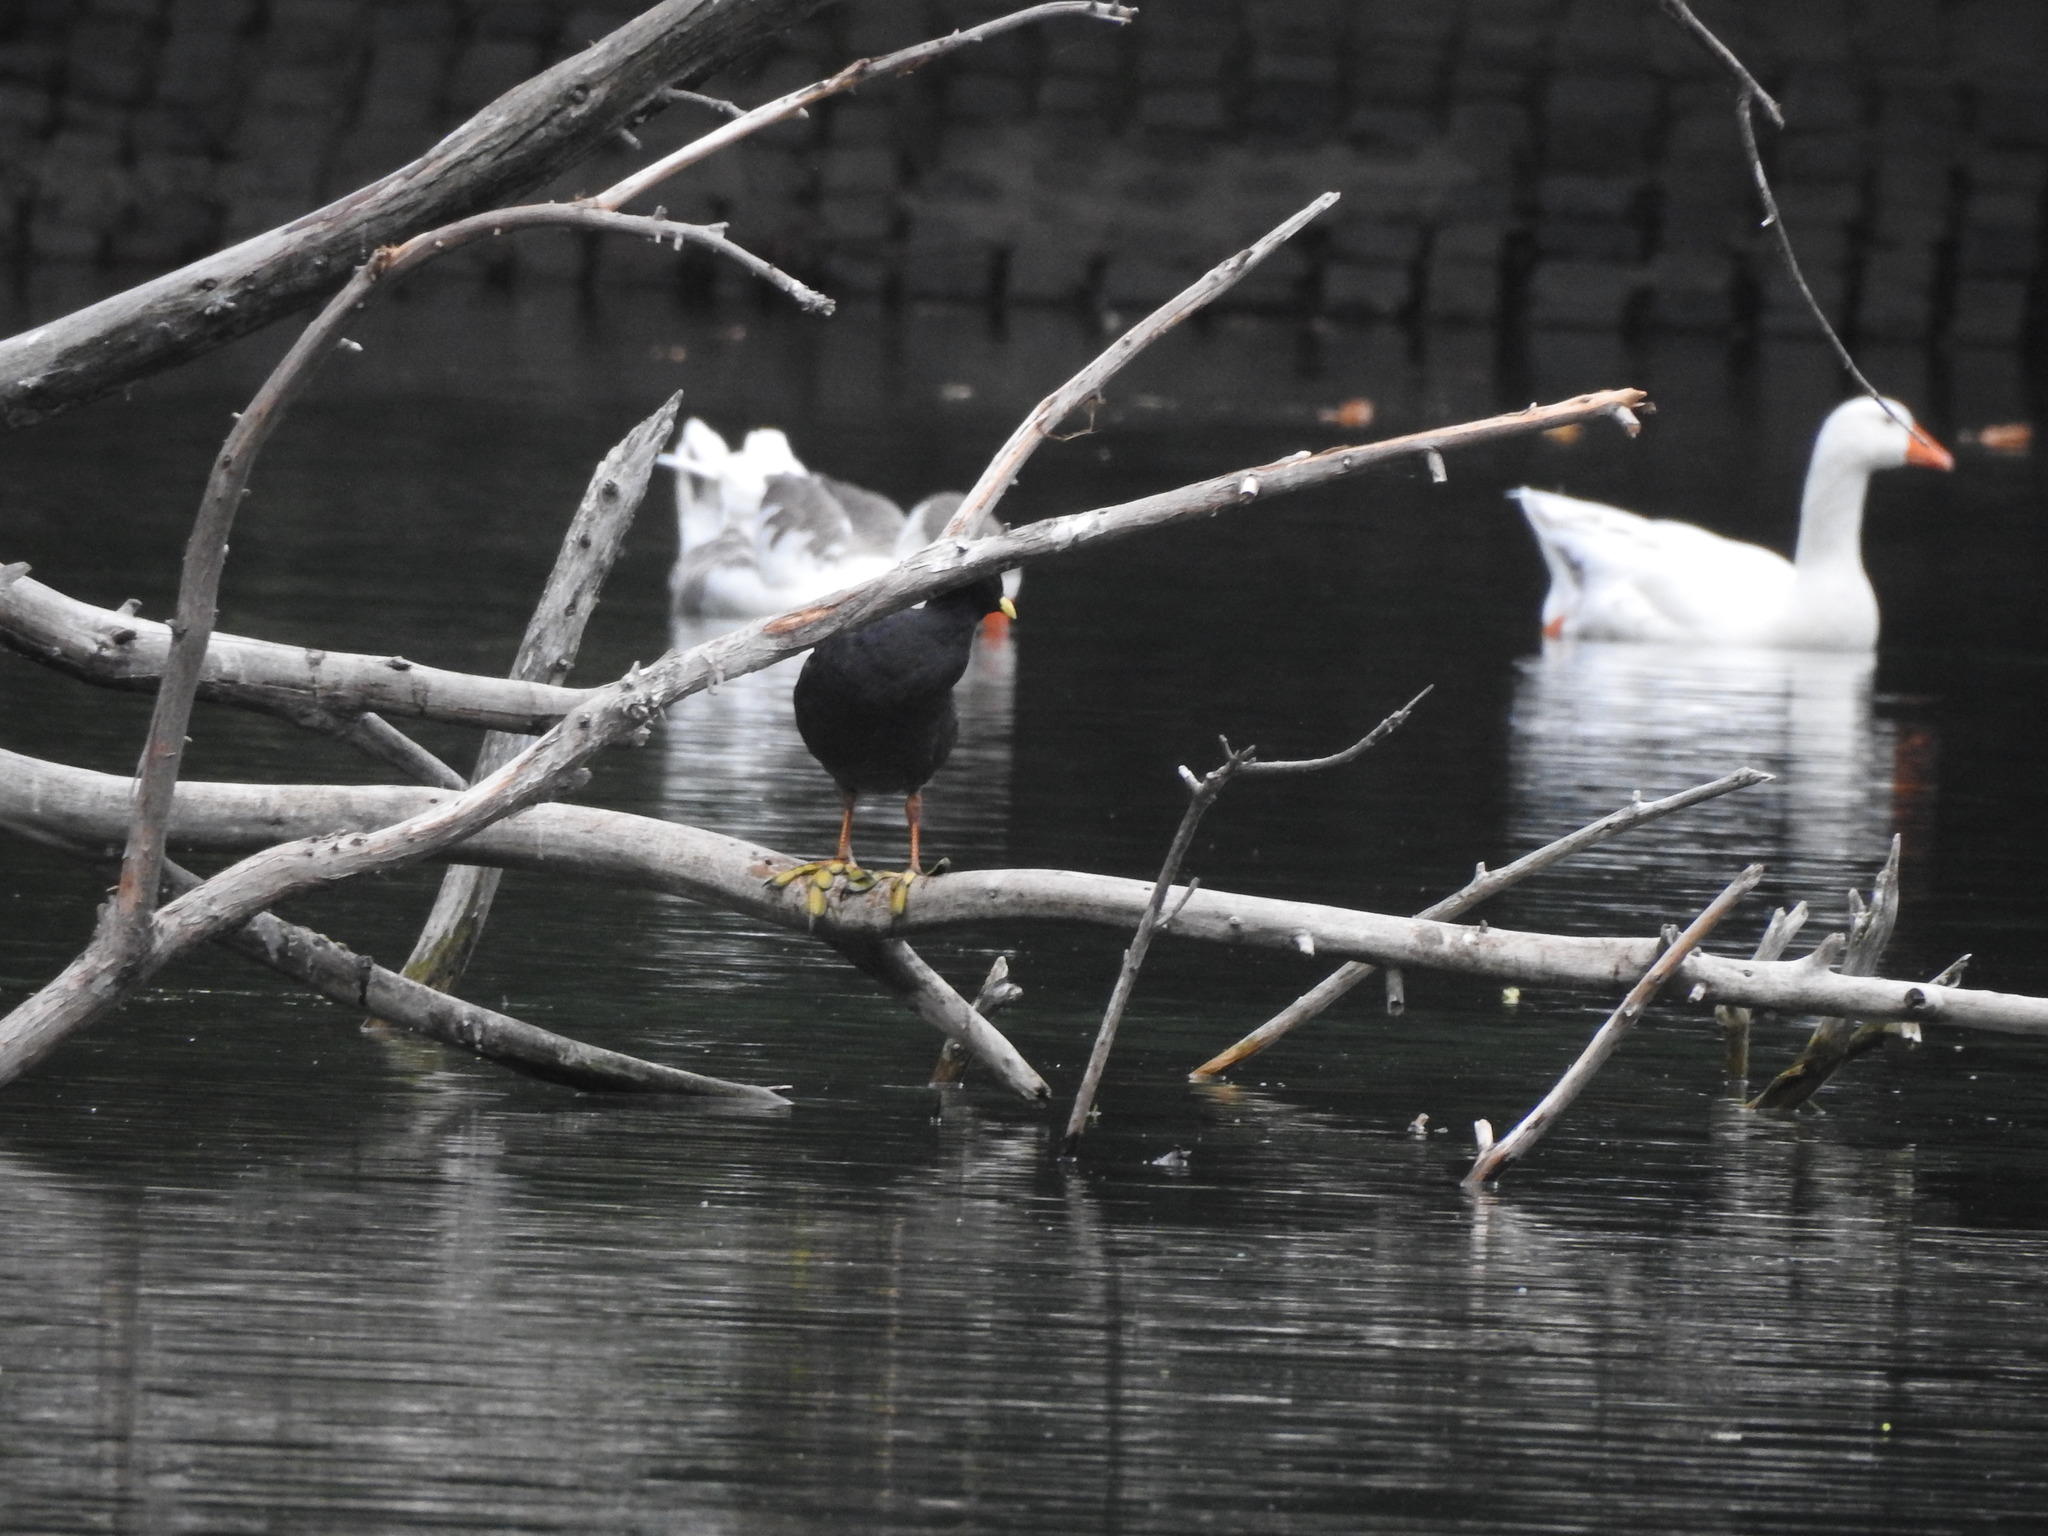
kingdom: Animalia
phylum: Chordata
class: Aves
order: Gruiformes
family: Rallidae
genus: Fulica
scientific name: Fulica leucoptera
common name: White-winged coot
